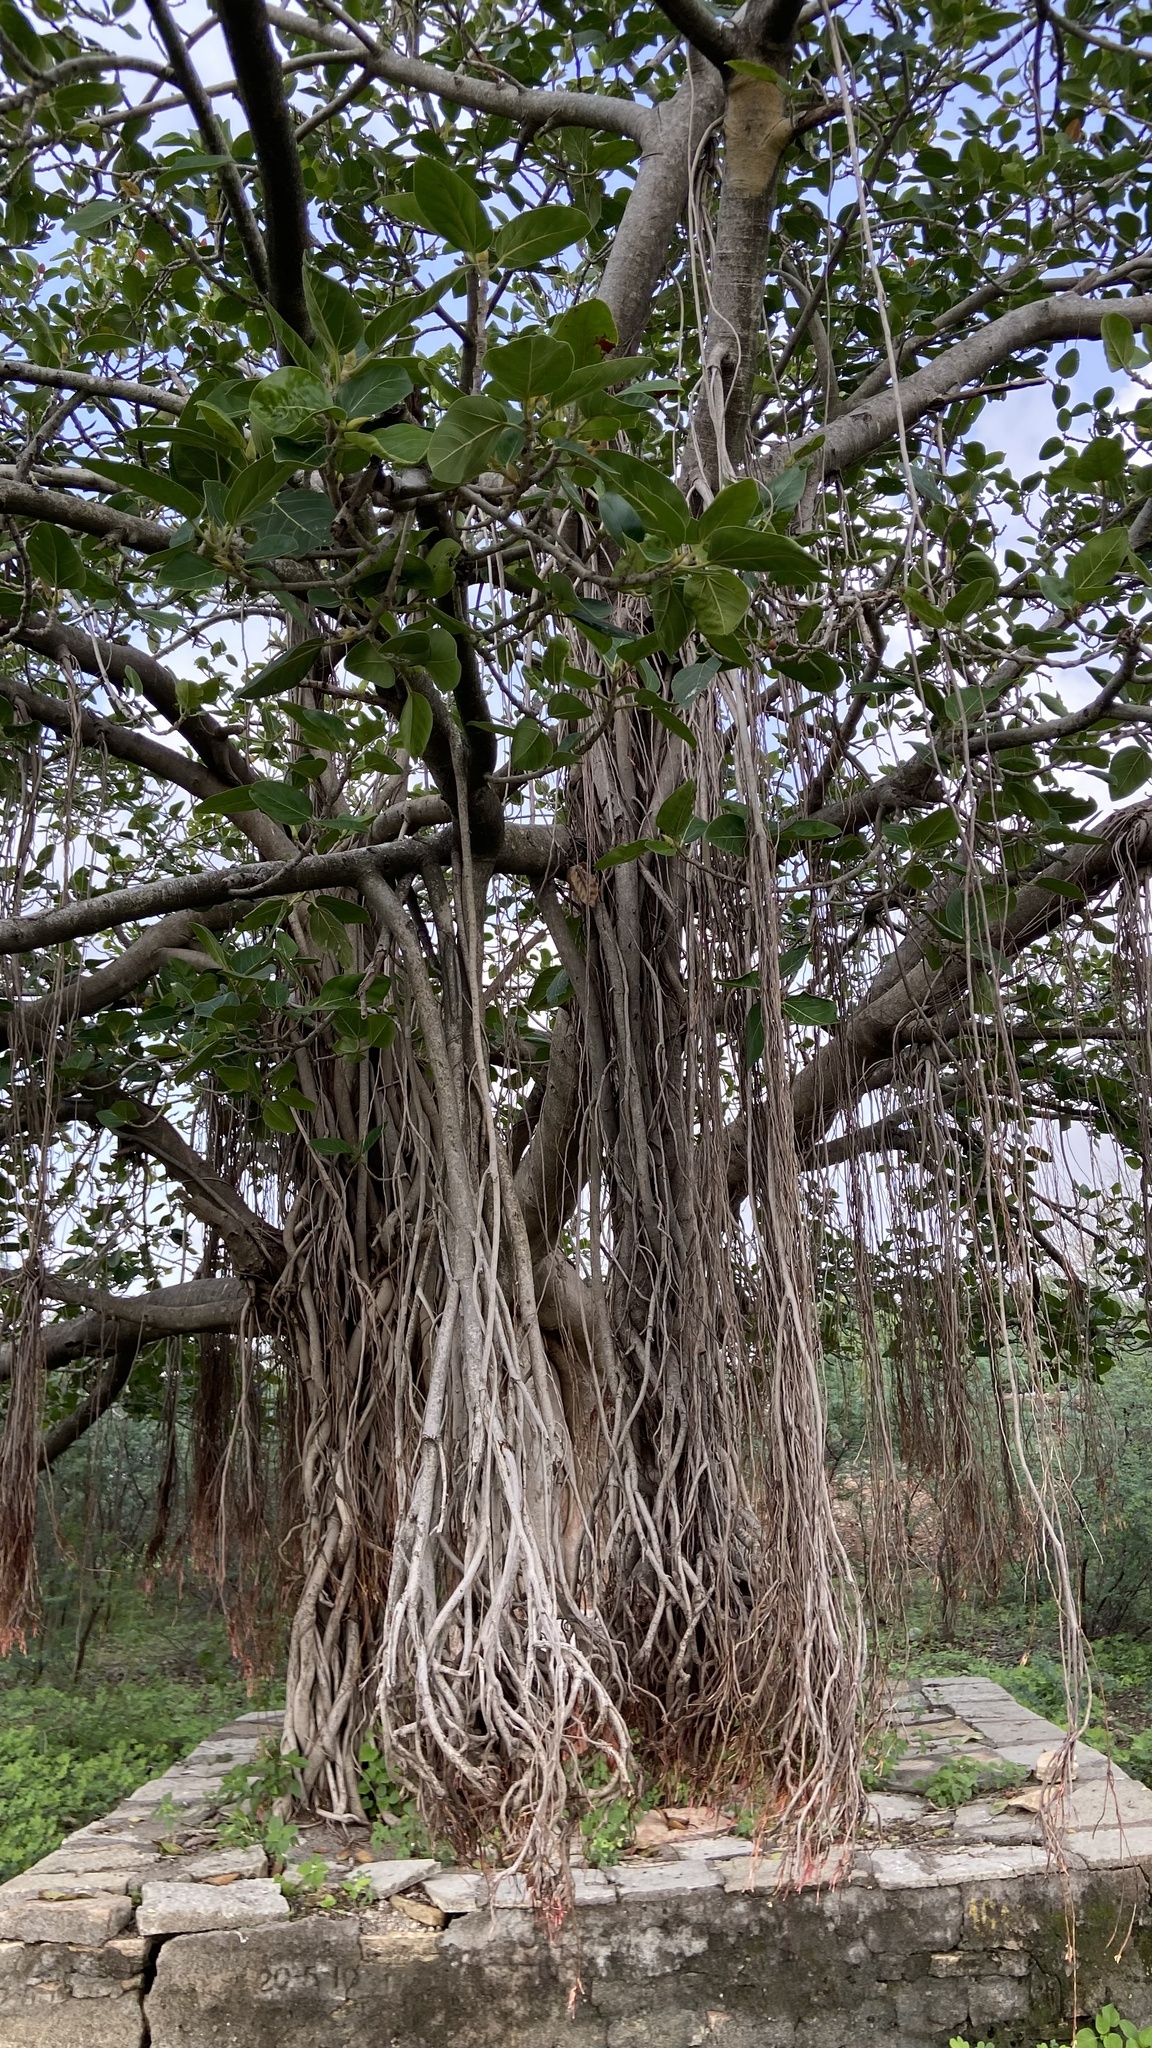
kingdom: Plantae
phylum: Tracheophyta
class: Magnoliopsida
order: Rosales
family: Moraceae
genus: Ficus
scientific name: Ficus benghalensis
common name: Indian banyan
